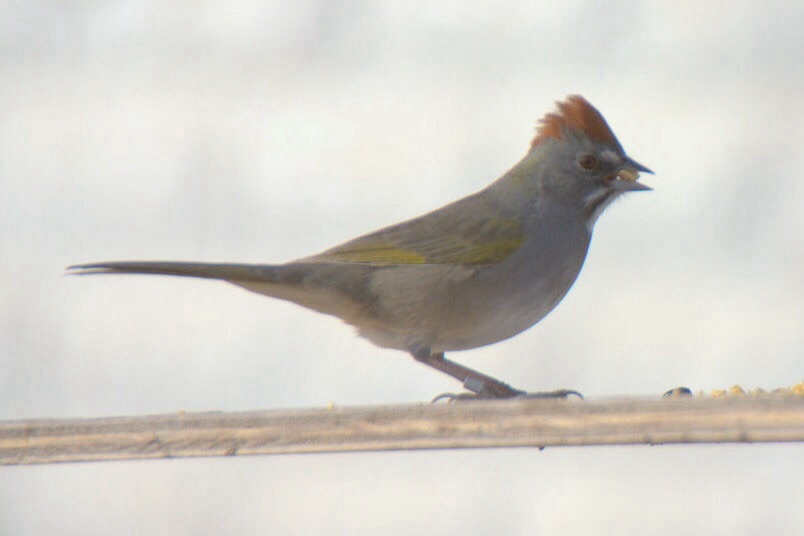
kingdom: Animalia
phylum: Chordata
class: Aves
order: Passeriformes
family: Passerellidae
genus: Pipilo
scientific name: Pipilo chlorurus
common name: Green-tailed towhee
